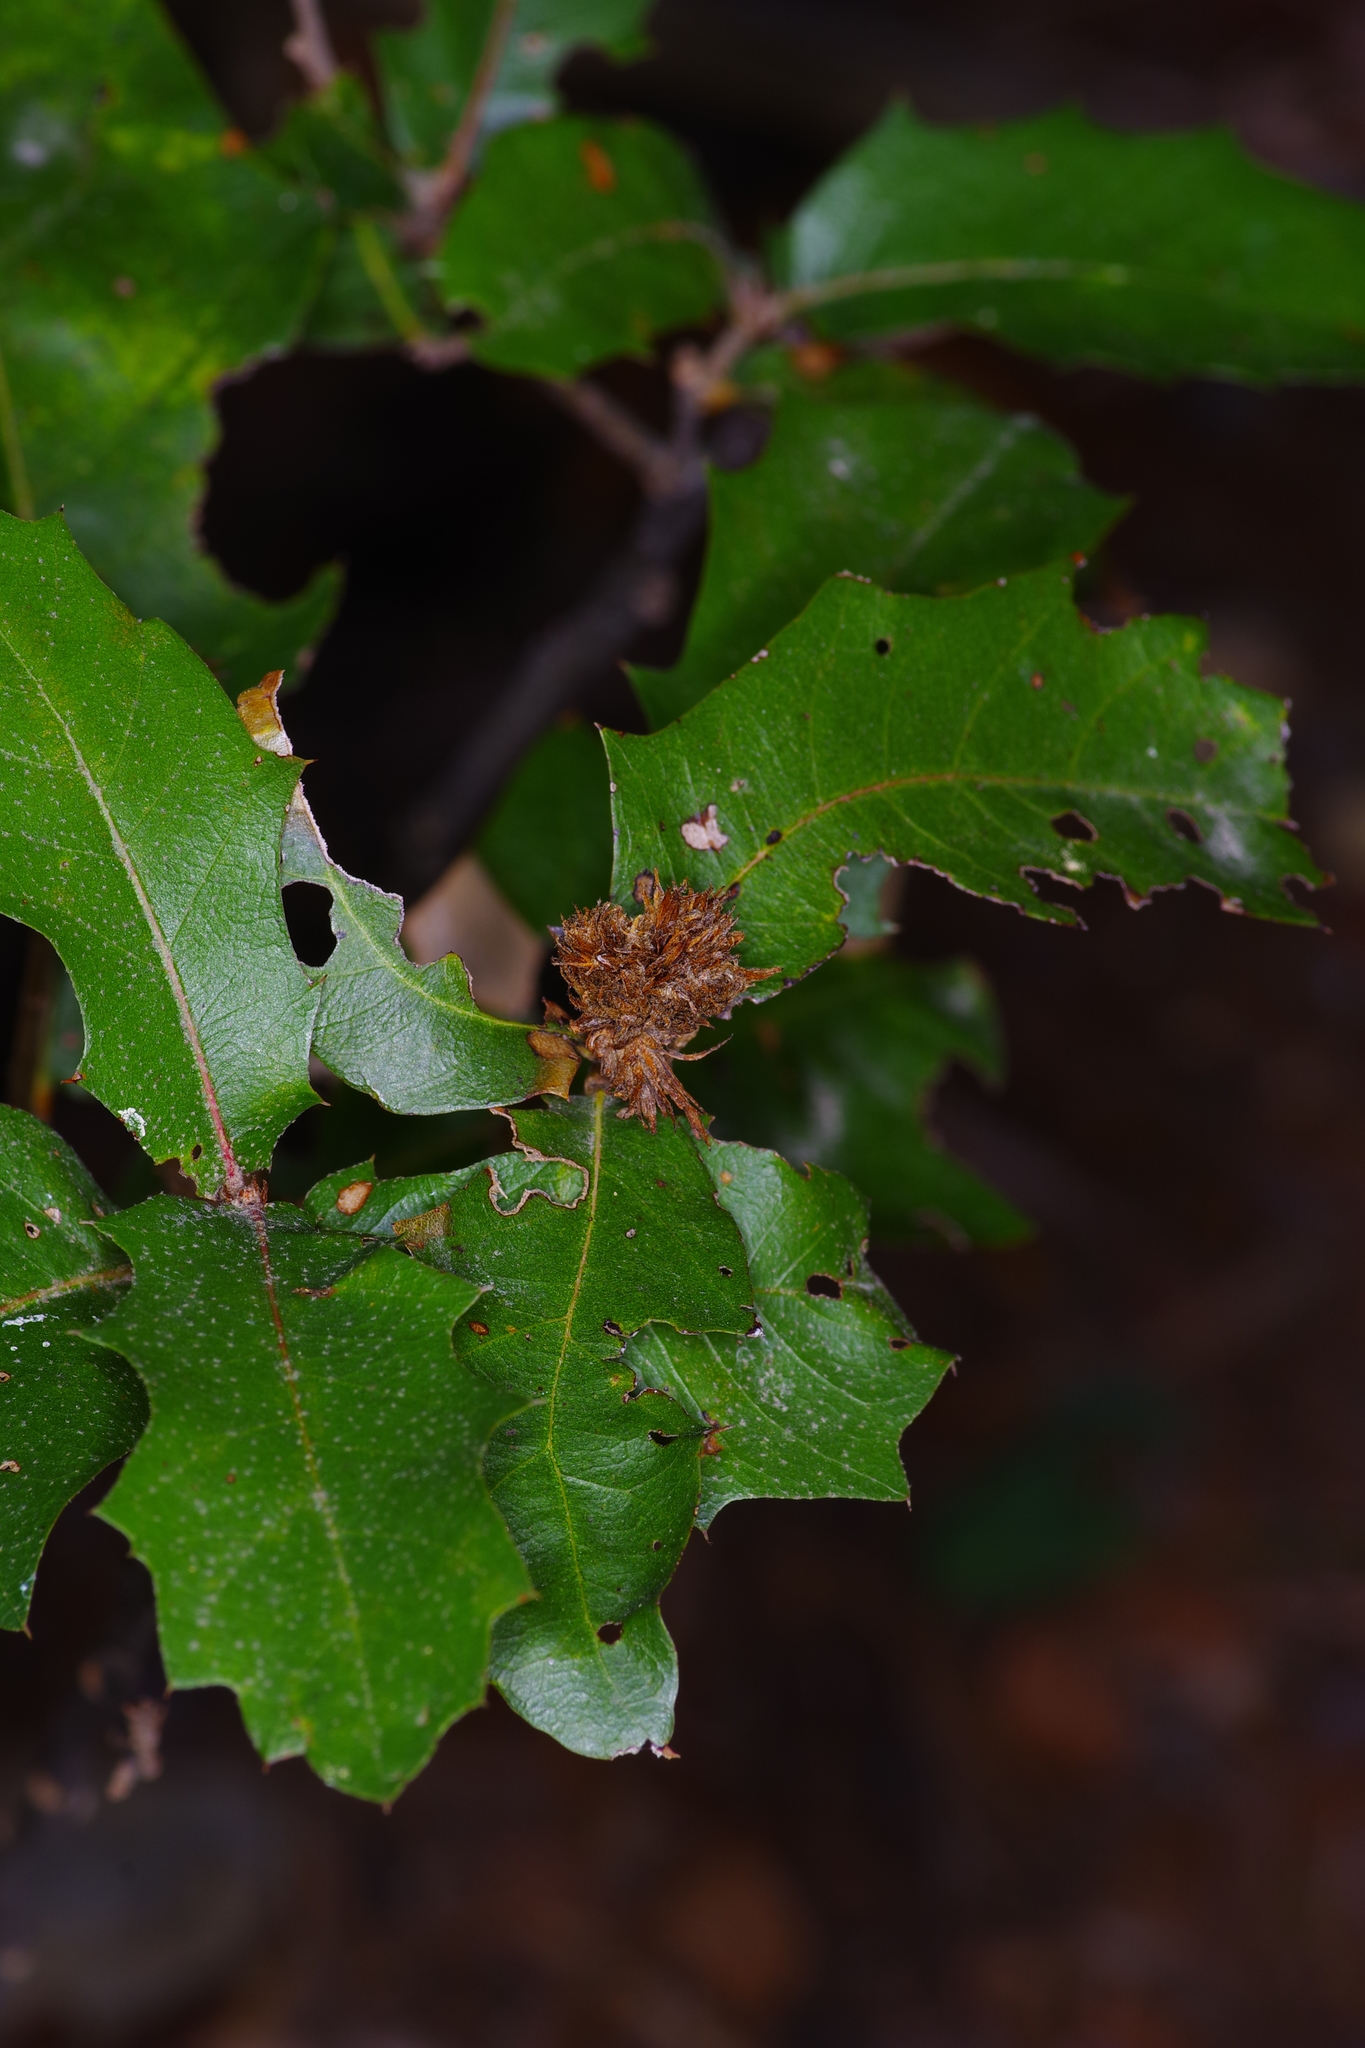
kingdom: Animalia
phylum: Arthropoda
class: Insecta
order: Hymenoptera
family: Cynipidae
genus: Andricus
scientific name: Andricus quercusfoliatus
